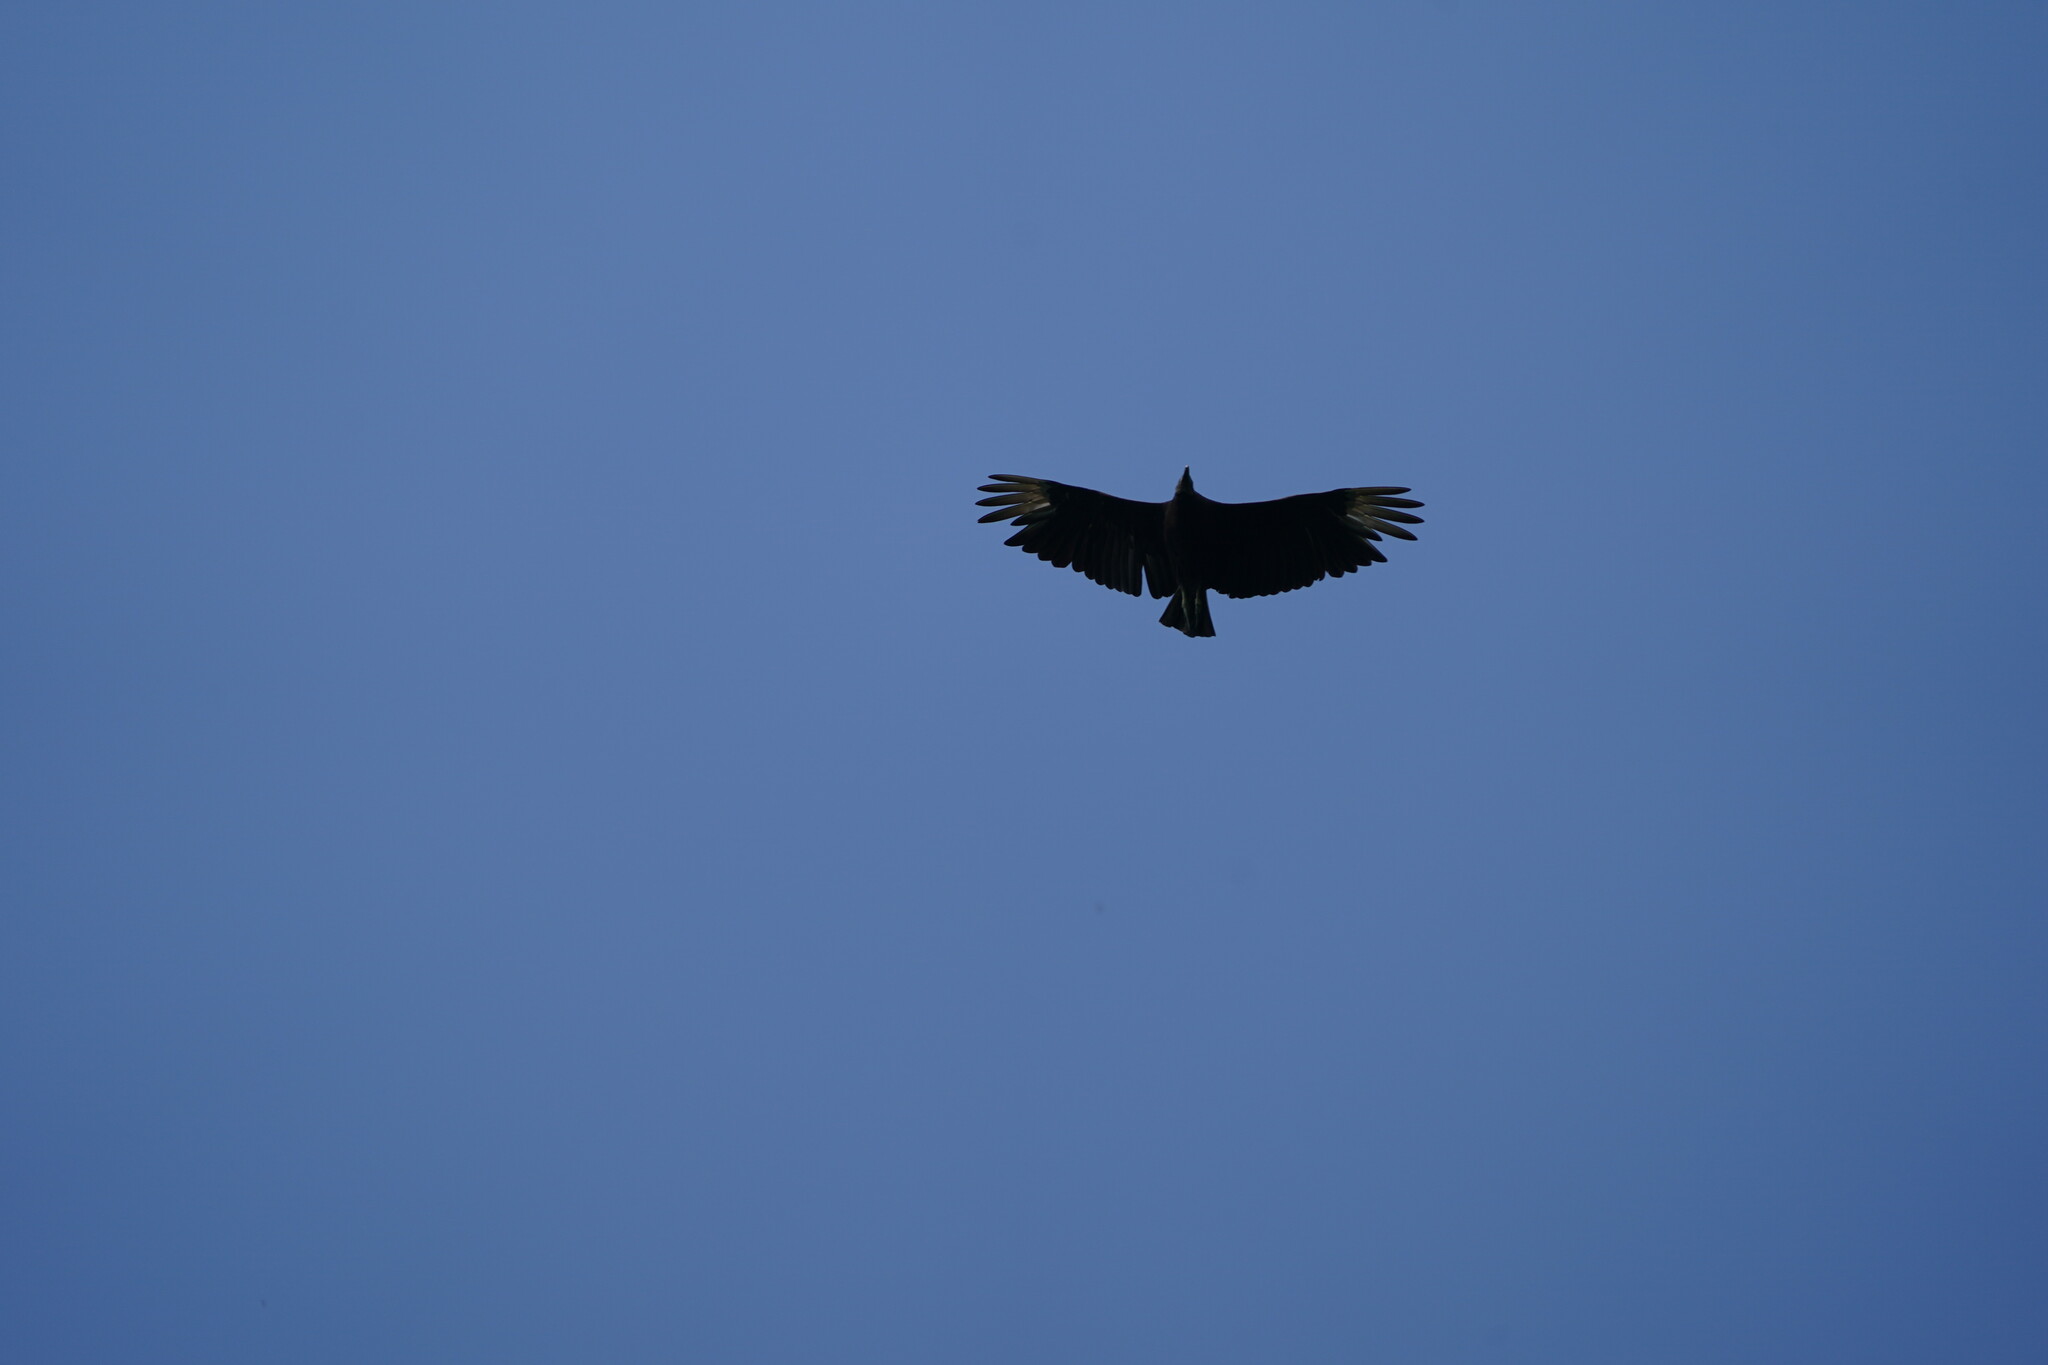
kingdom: Animalia
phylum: Chordata
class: Aves
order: Accipitriformes
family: Cathartidae
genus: Coragyps
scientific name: Coragyps atratus
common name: Black vulture
